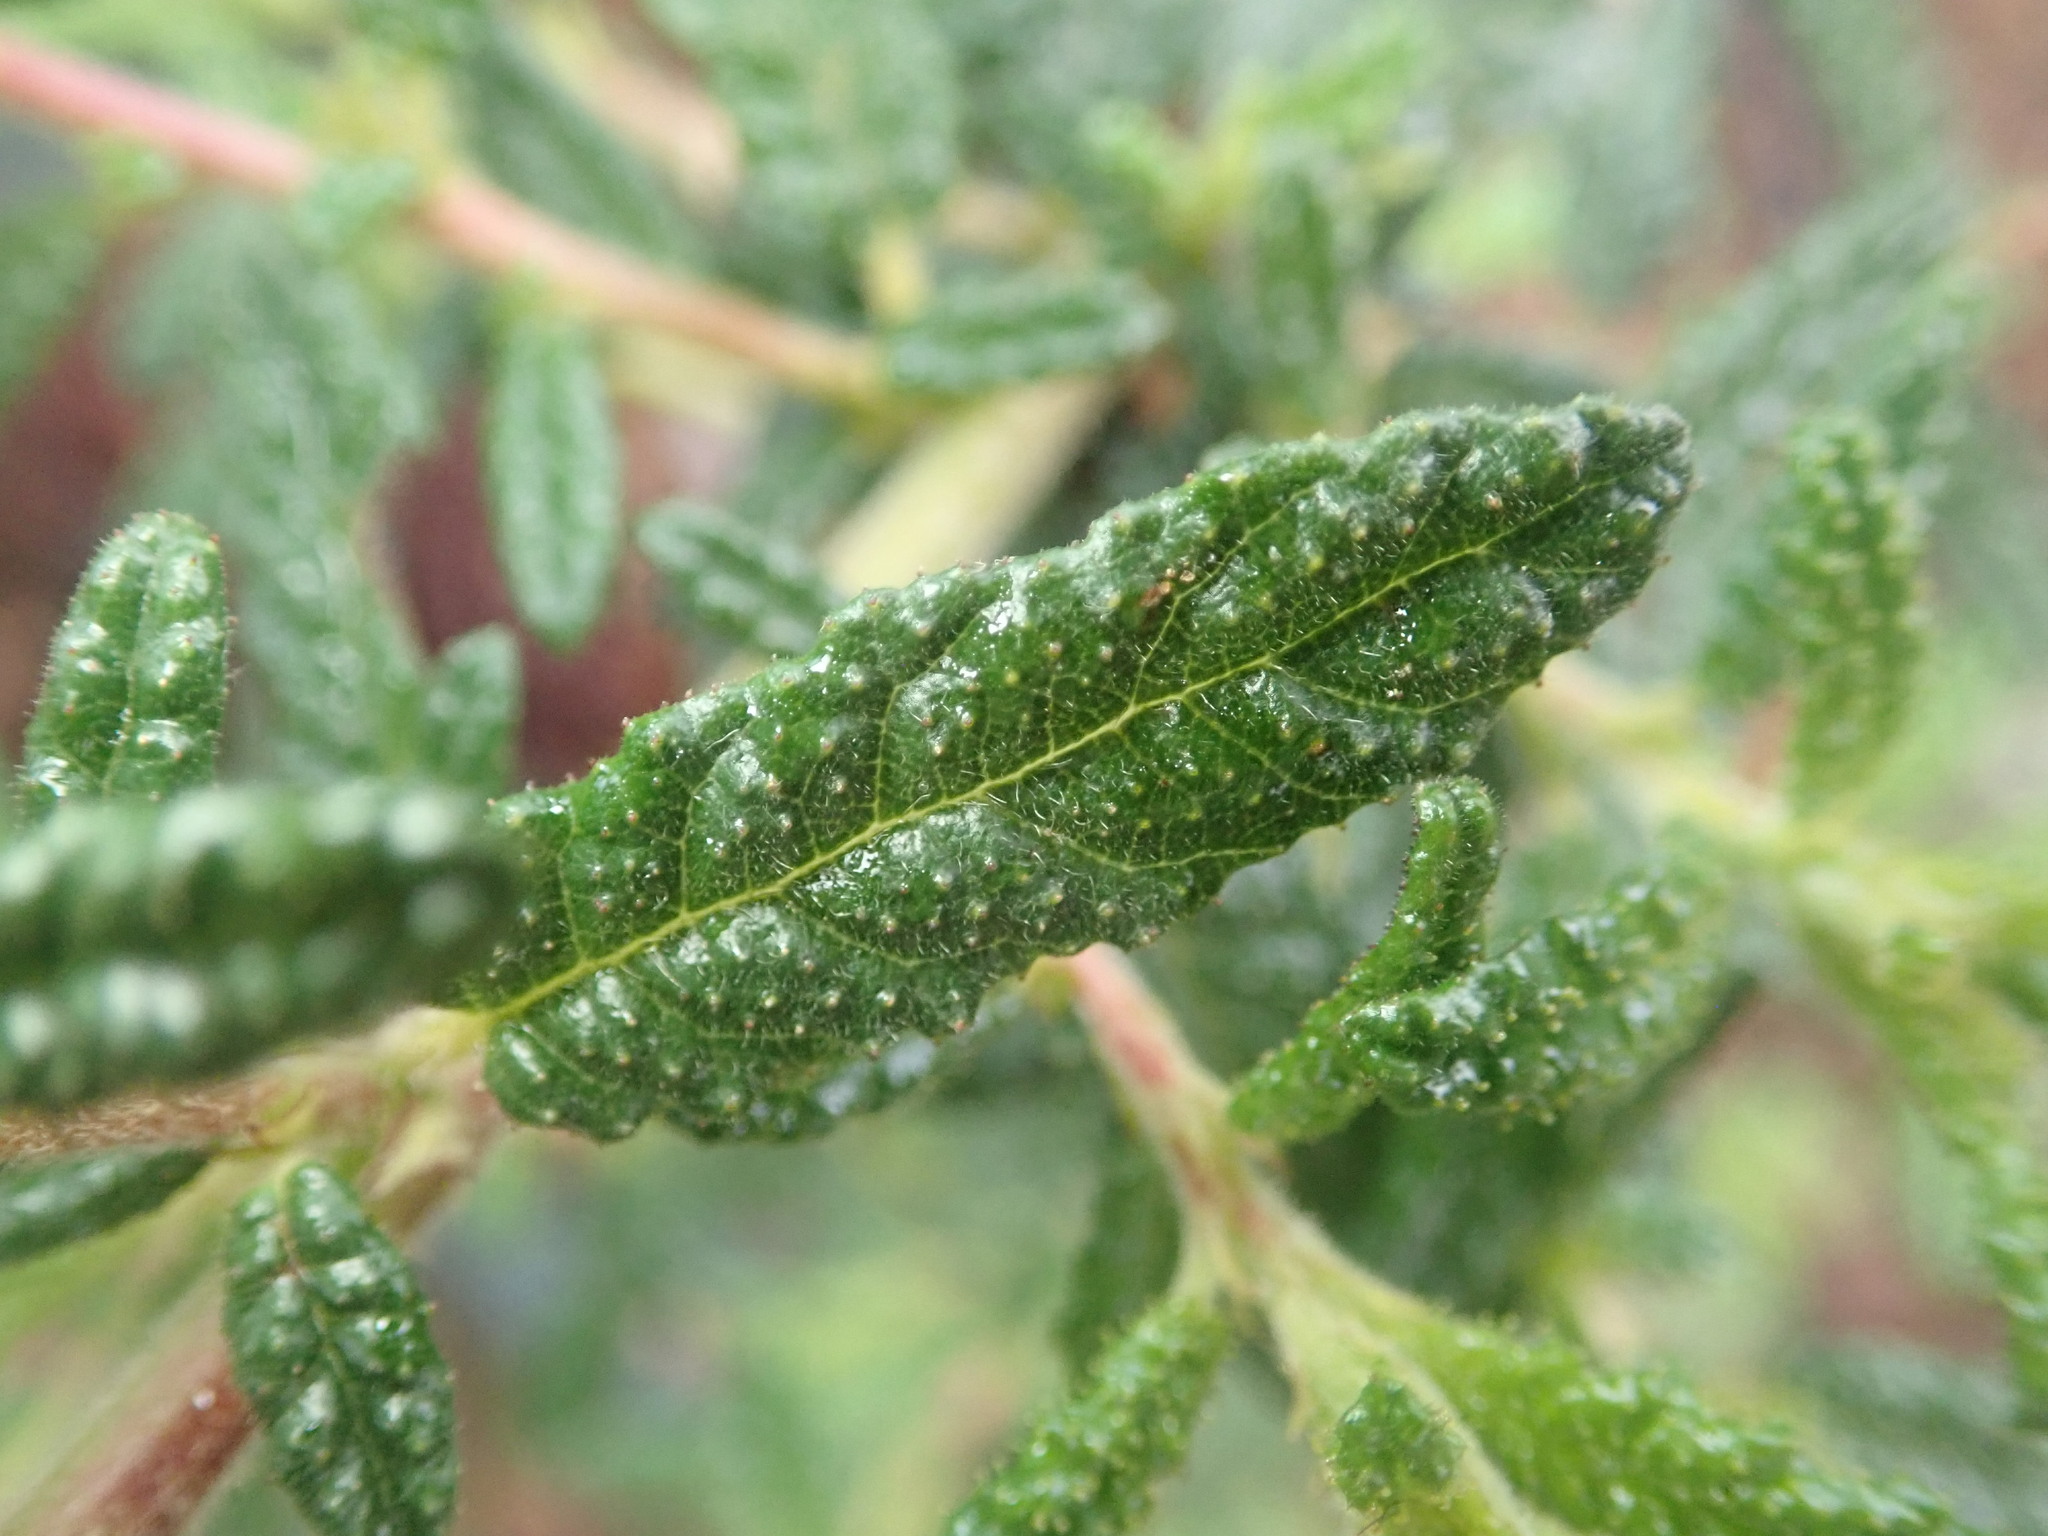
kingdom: Plantae
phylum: Tracheophyta
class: Magnoliopsida
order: Rosales
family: Rhamnaceae
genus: Ceanothus
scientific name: Ceanothus papillosus
